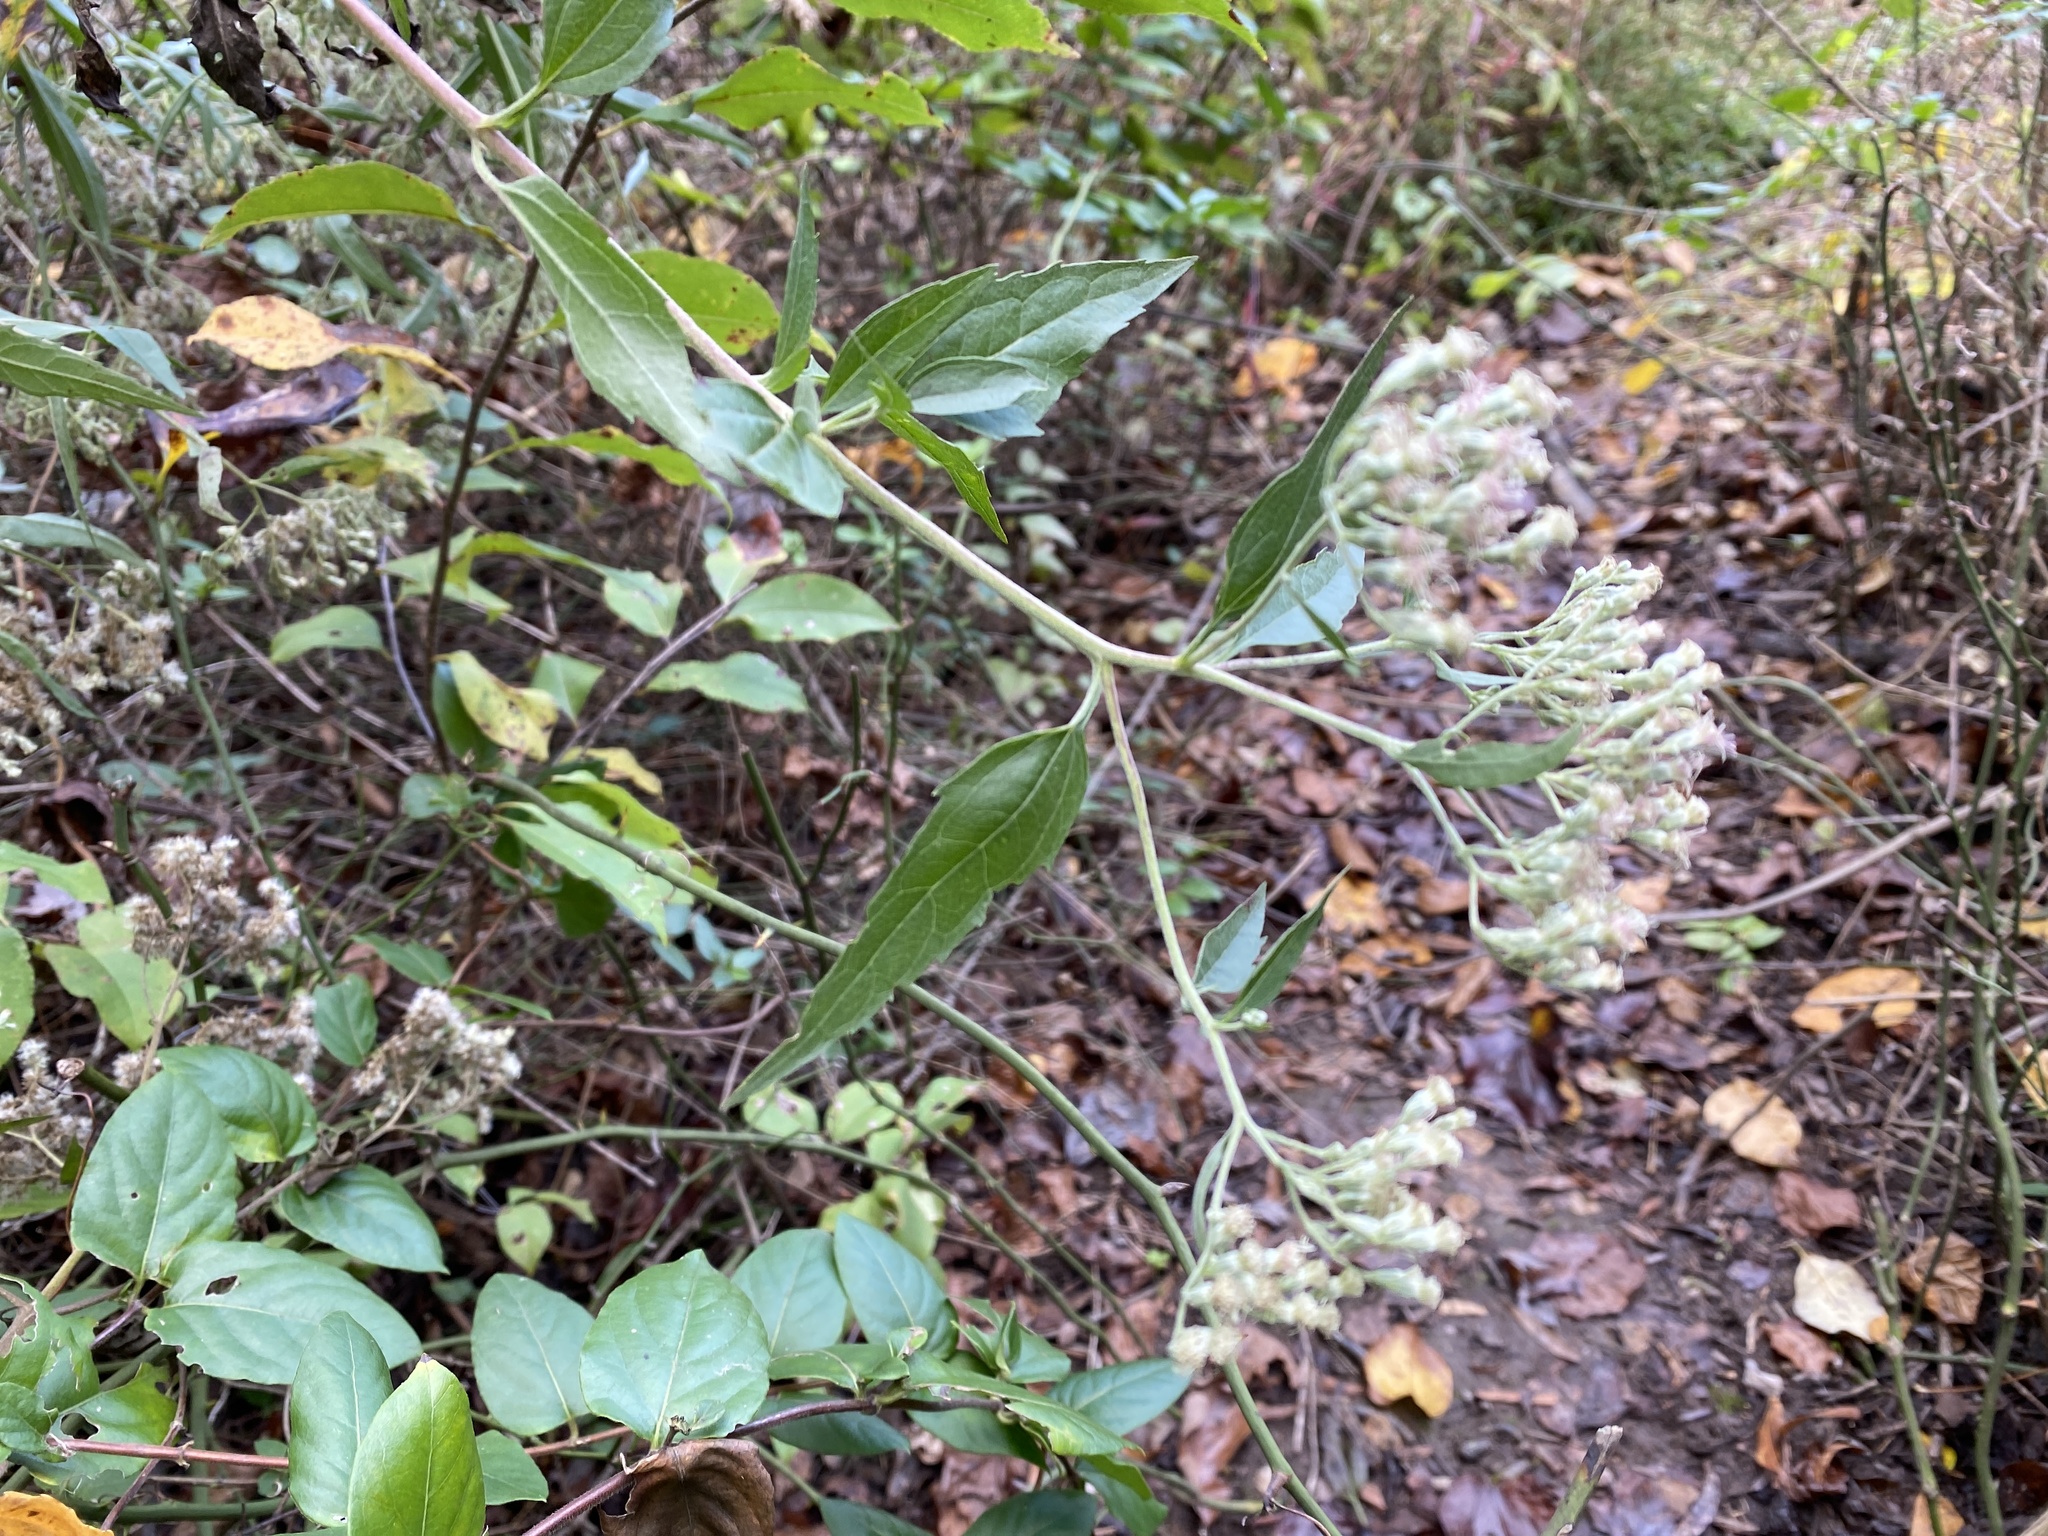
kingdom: Plantae
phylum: Tracheophyta
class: Magnoliopsida
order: Asterales
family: Asteraceae
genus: Eupatorium
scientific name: Eupatorium serotinum
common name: Late boneset
